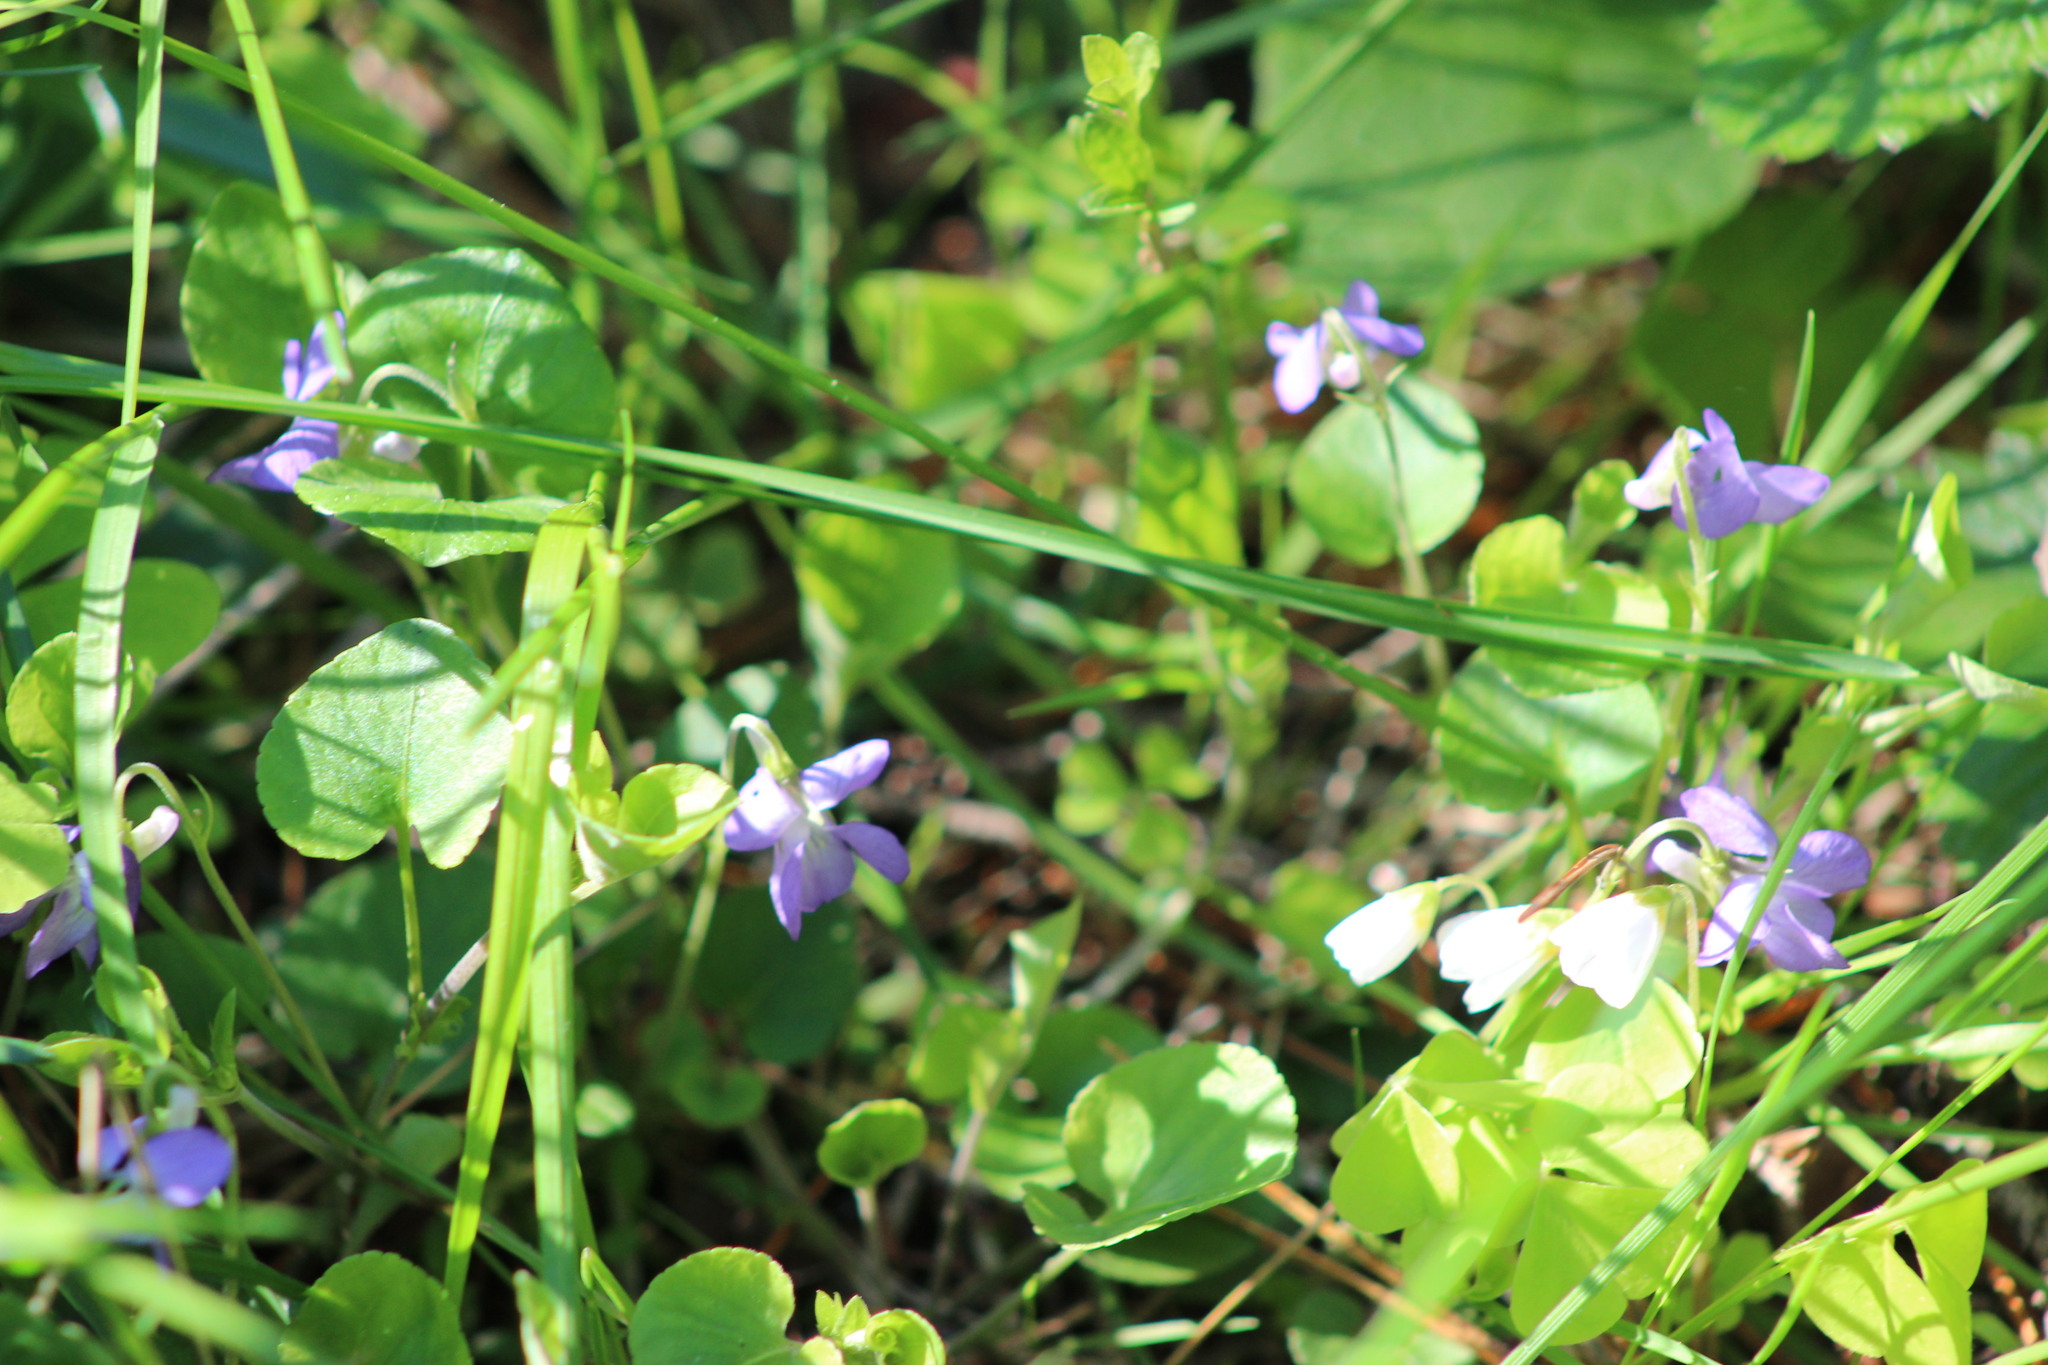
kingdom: Plantae
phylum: Tracheophyta
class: Magnoliopsida
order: Malpighiales
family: Violaceae
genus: Viola
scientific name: Viola rupestris
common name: Teesdale violet
